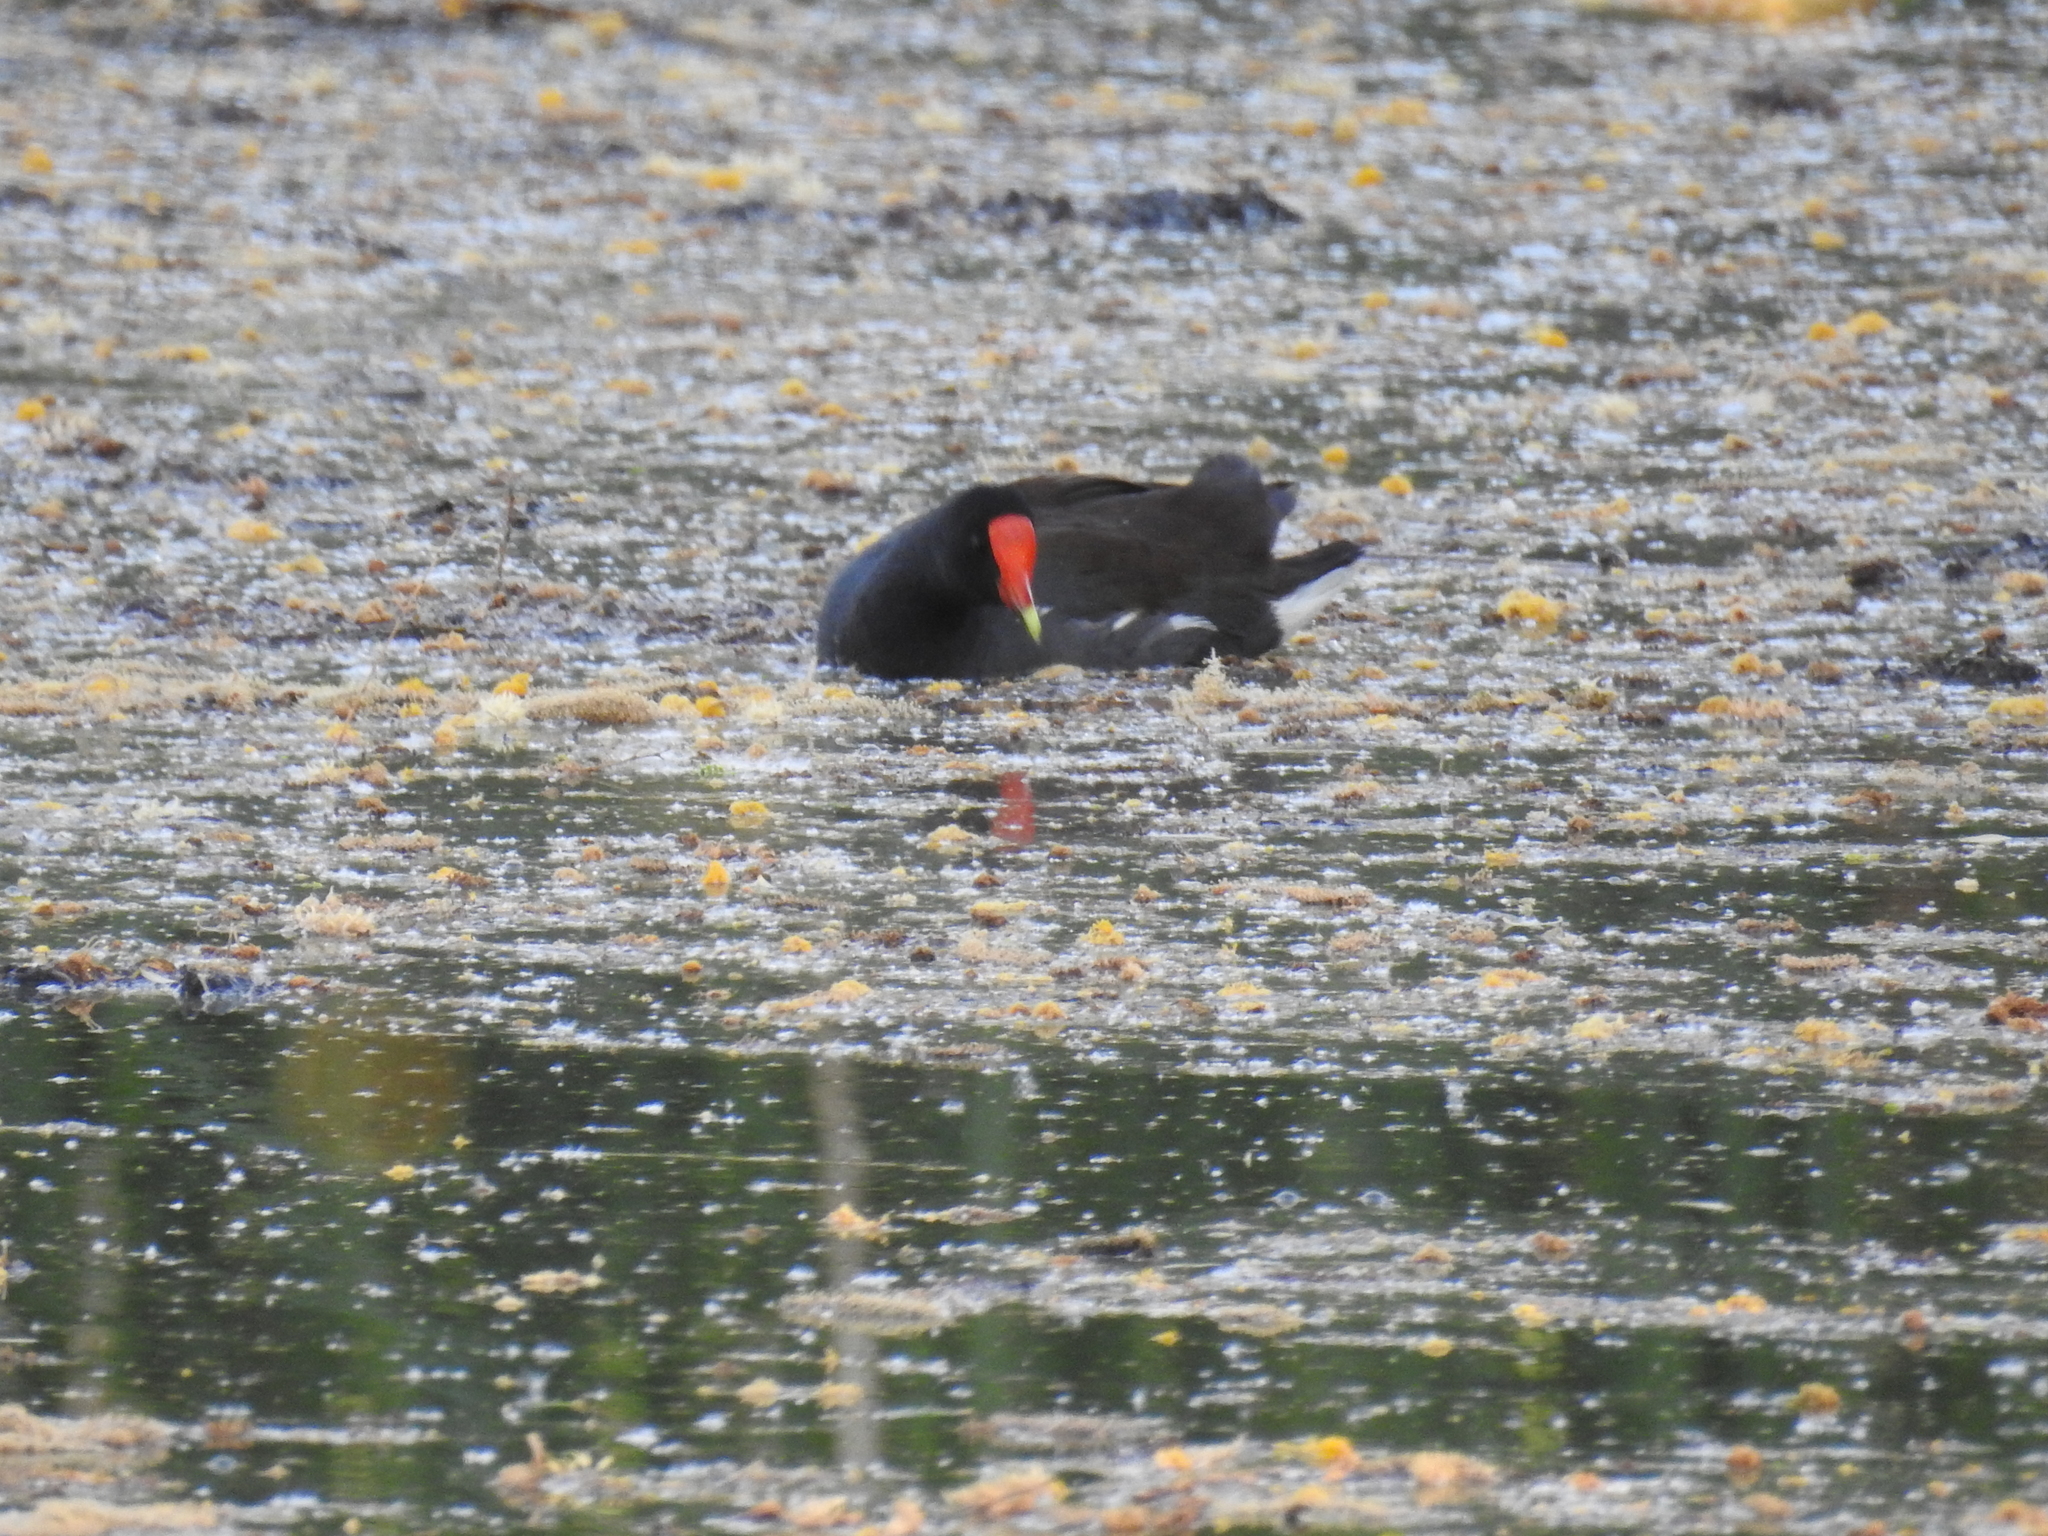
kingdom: Animalia
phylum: Chordata
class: Aves
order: Gruiformes
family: Rallidae
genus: Gallinula
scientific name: Gallinula chloropus
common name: Common moorhen
